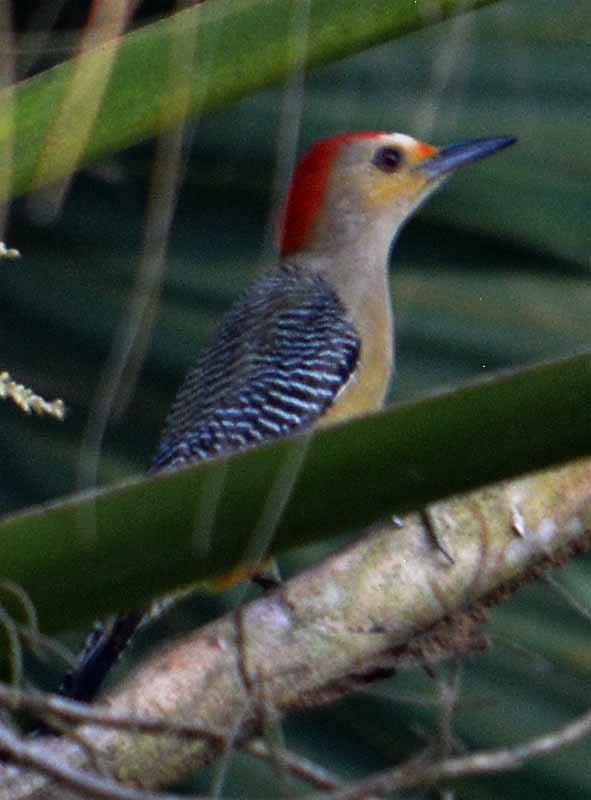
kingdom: Animalia
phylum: Chordata
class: Aves
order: Piciformes
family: Picidae
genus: Melanerpes
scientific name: Melanerpes aurifrons
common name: Golden-fronted woodpecker
